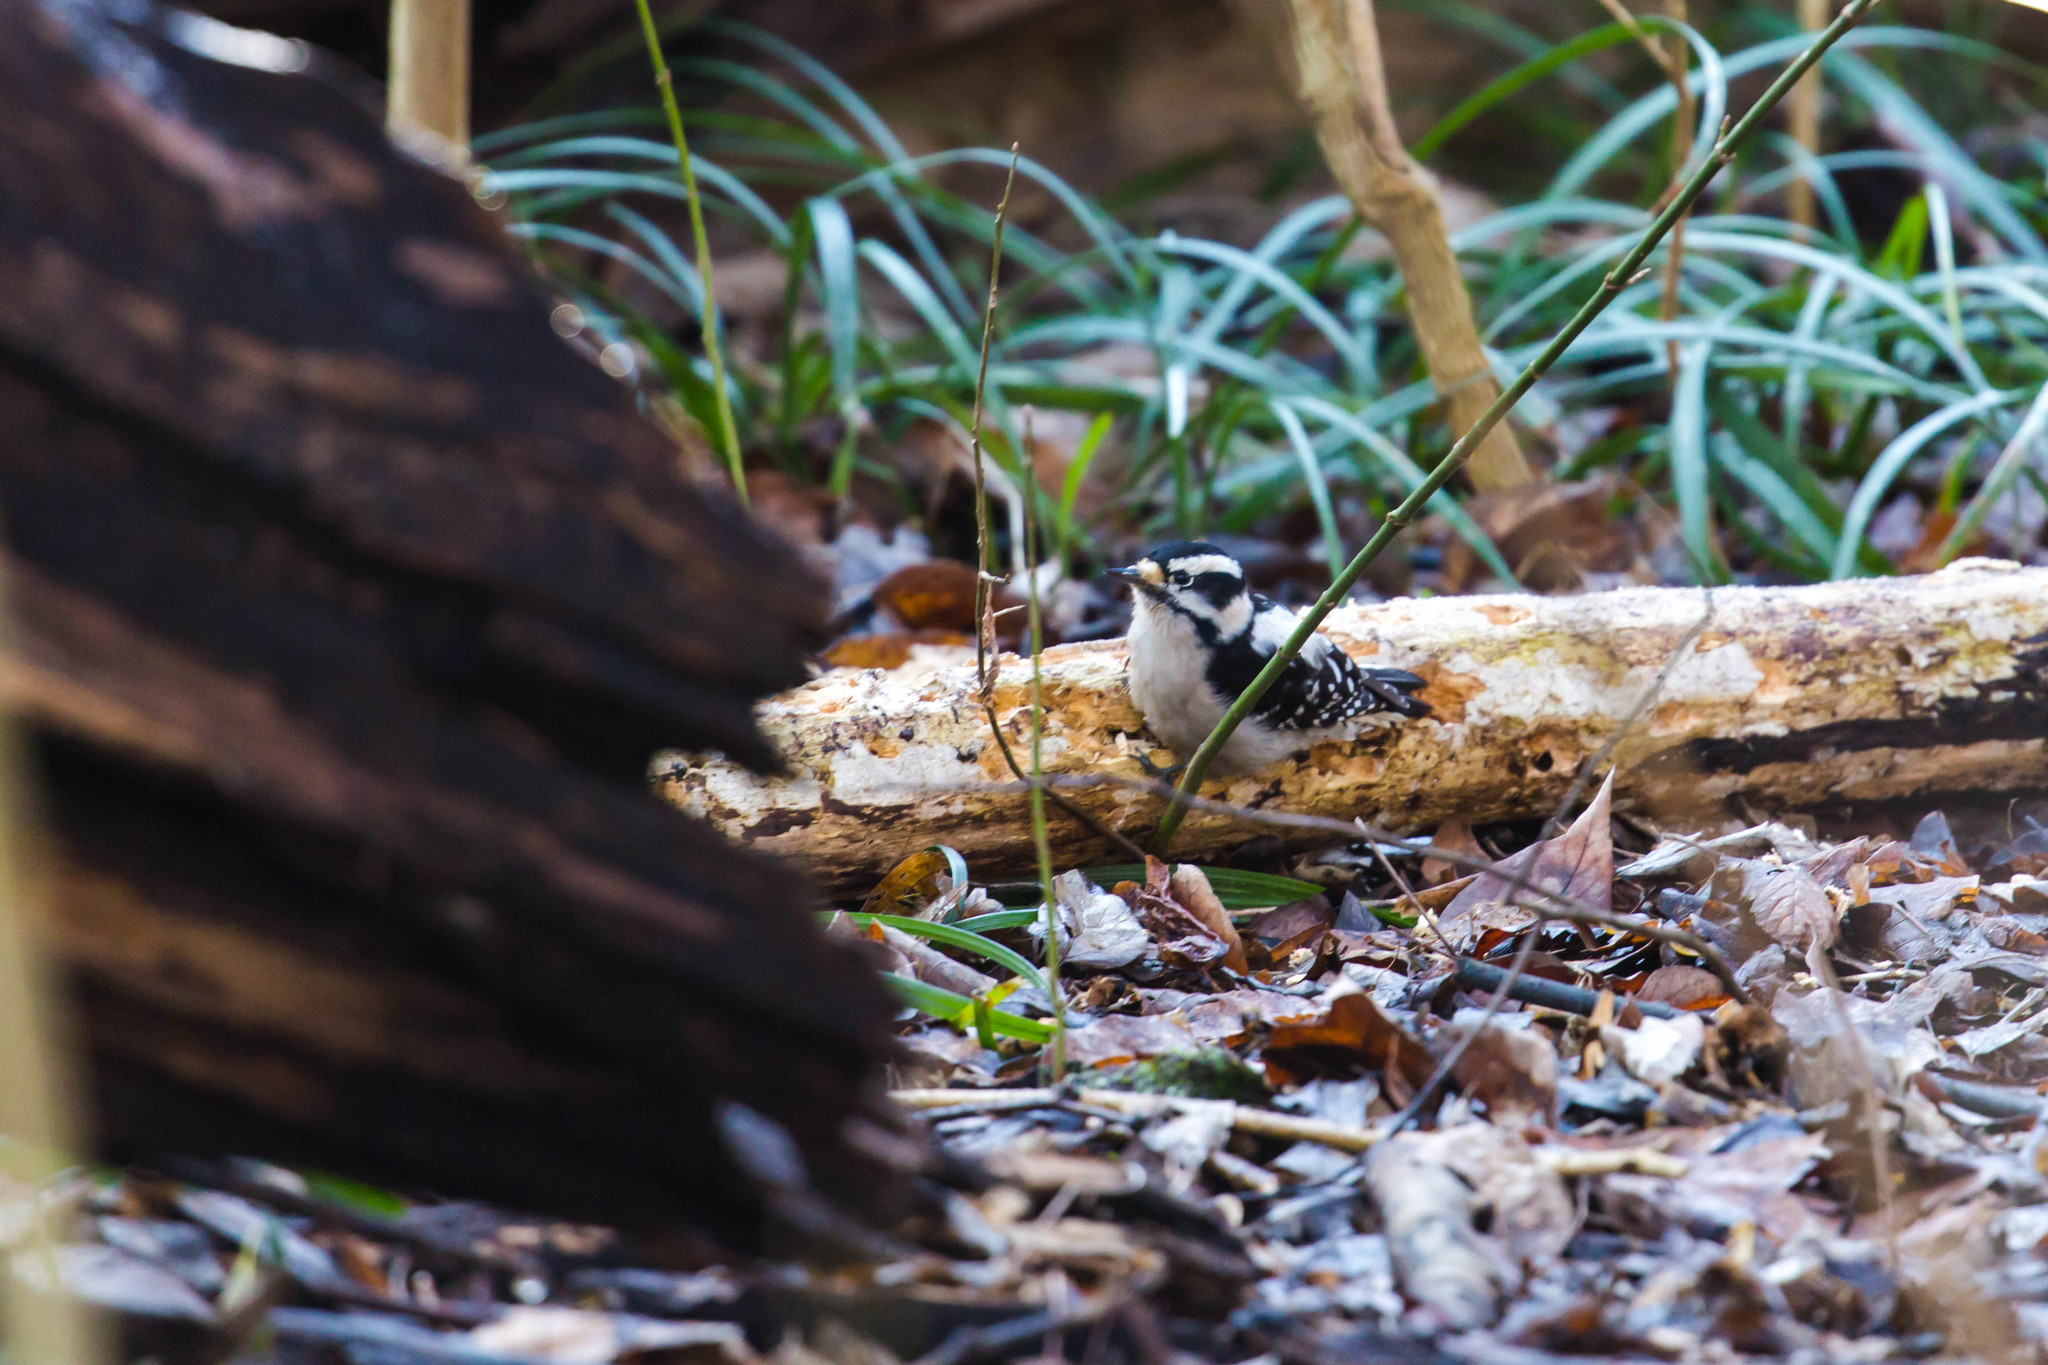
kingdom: Animalia
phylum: Chordata
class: Aves
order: Piciformes
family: Picidae
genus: Dryobates
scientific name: Dryobates pubescens
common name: Downy woodpecker
